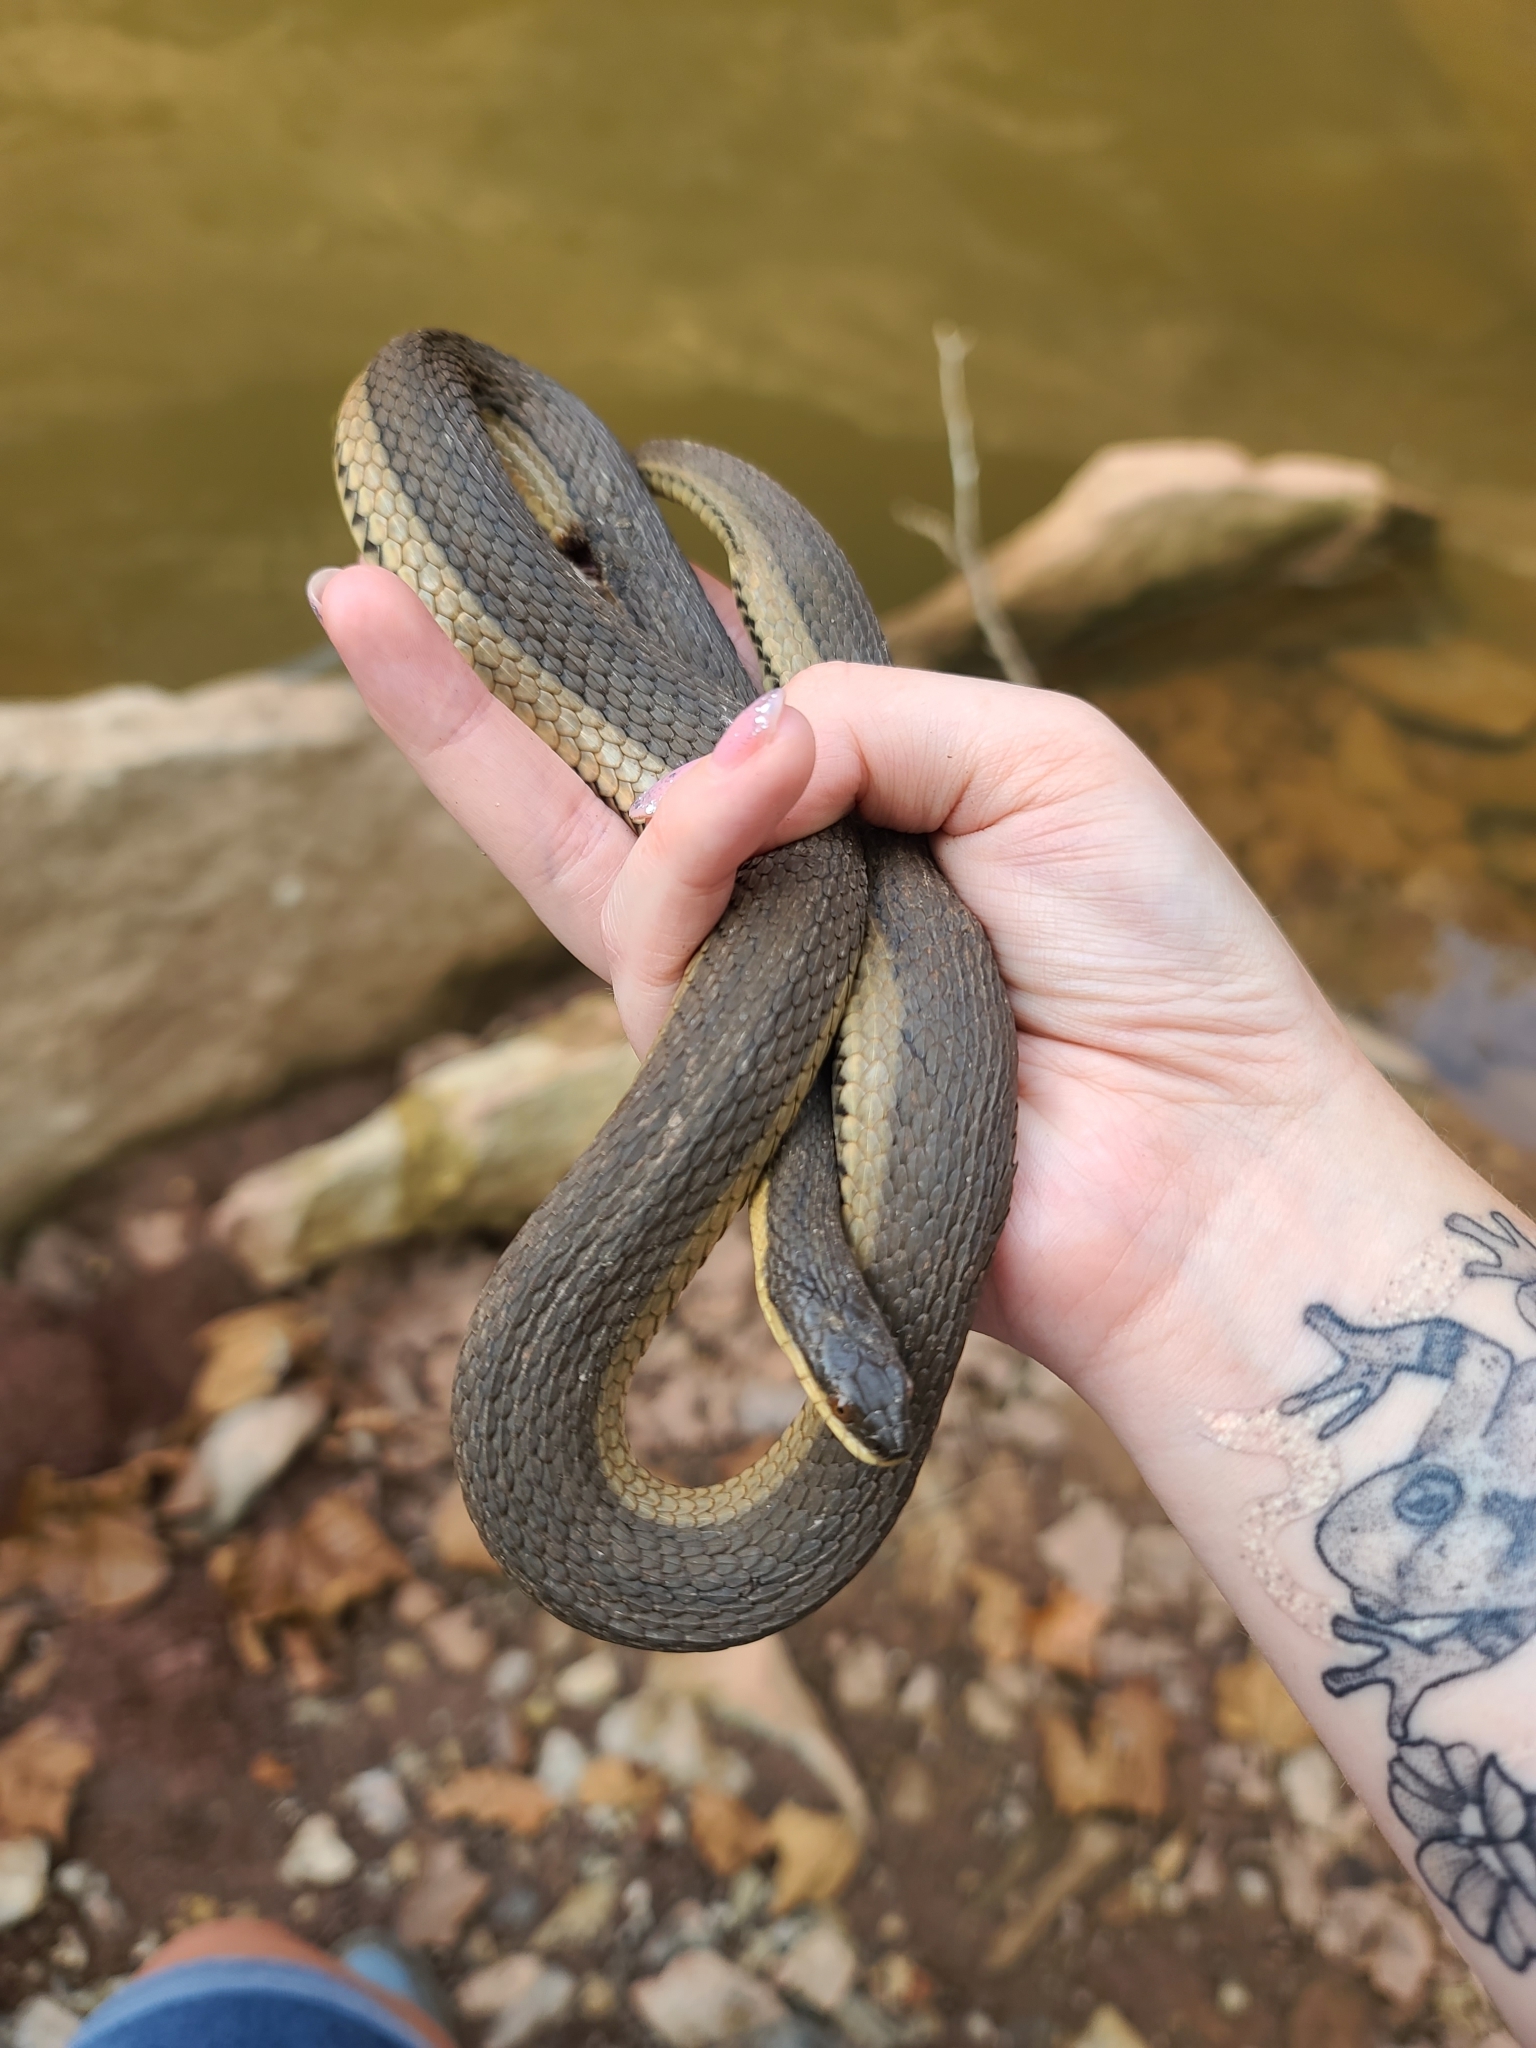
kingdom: Animalia
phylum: Chordata
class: Squamata
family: Colubridae
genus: Regina
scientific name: Regina grahamii
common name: Graham's crayfish snake
